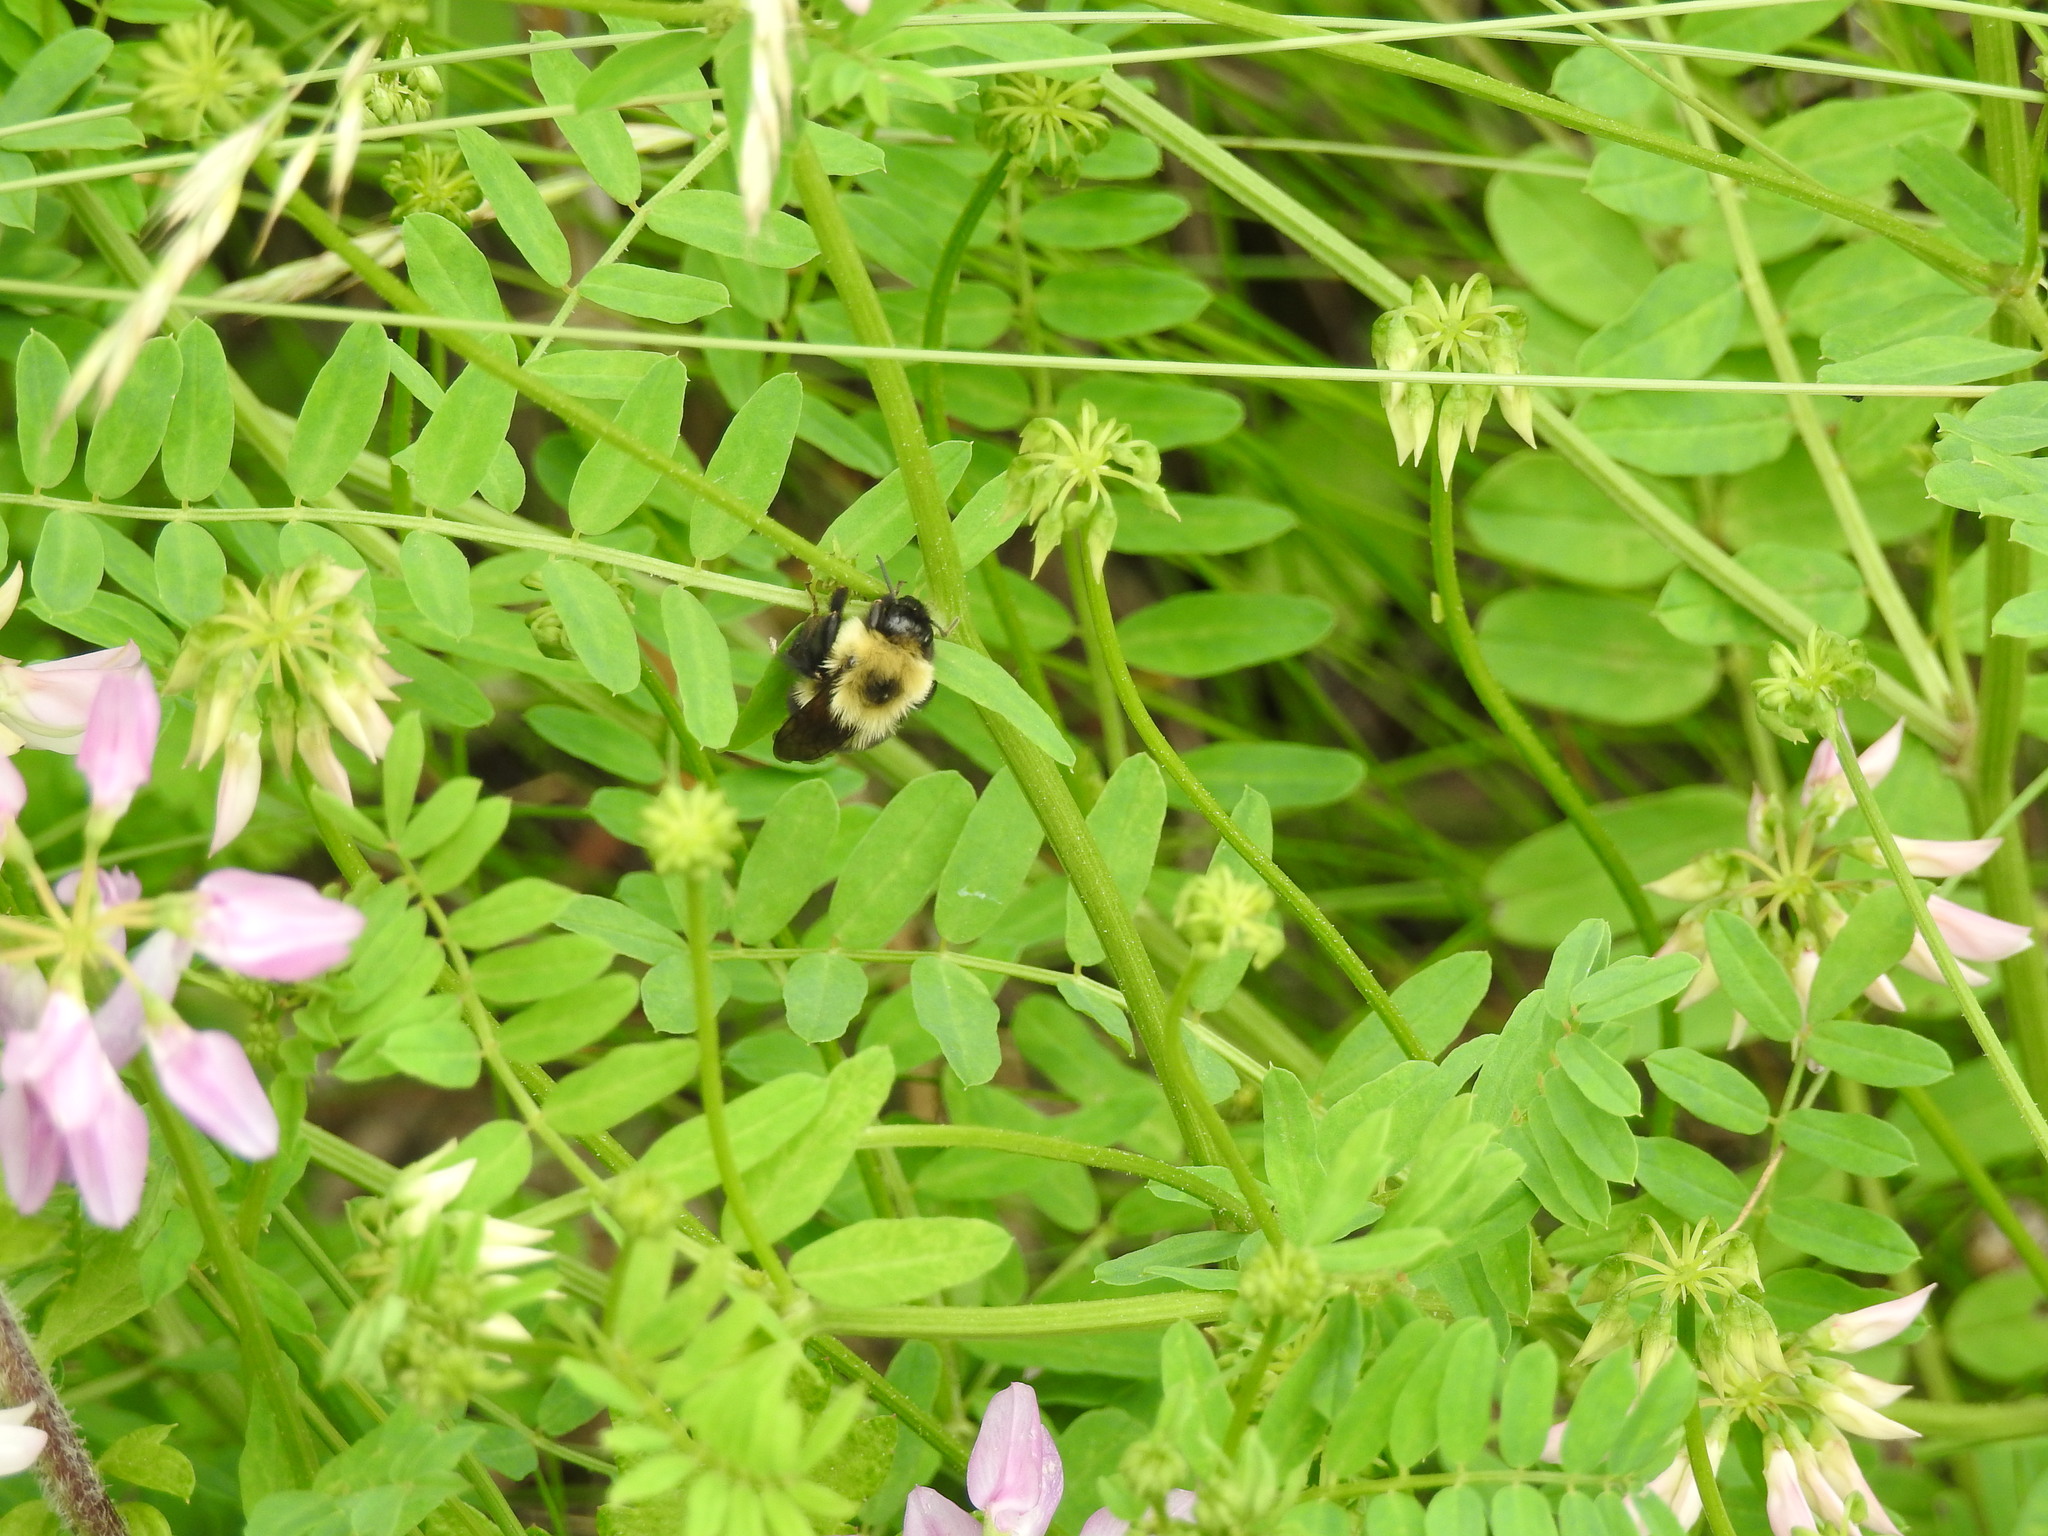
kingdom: Animalia
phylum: Arthropoda
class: Insecta
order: Hymenoptera
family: Apidae
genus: Bombus
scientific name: Bombus bimaculatus
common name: Two-spotted bumble bee
